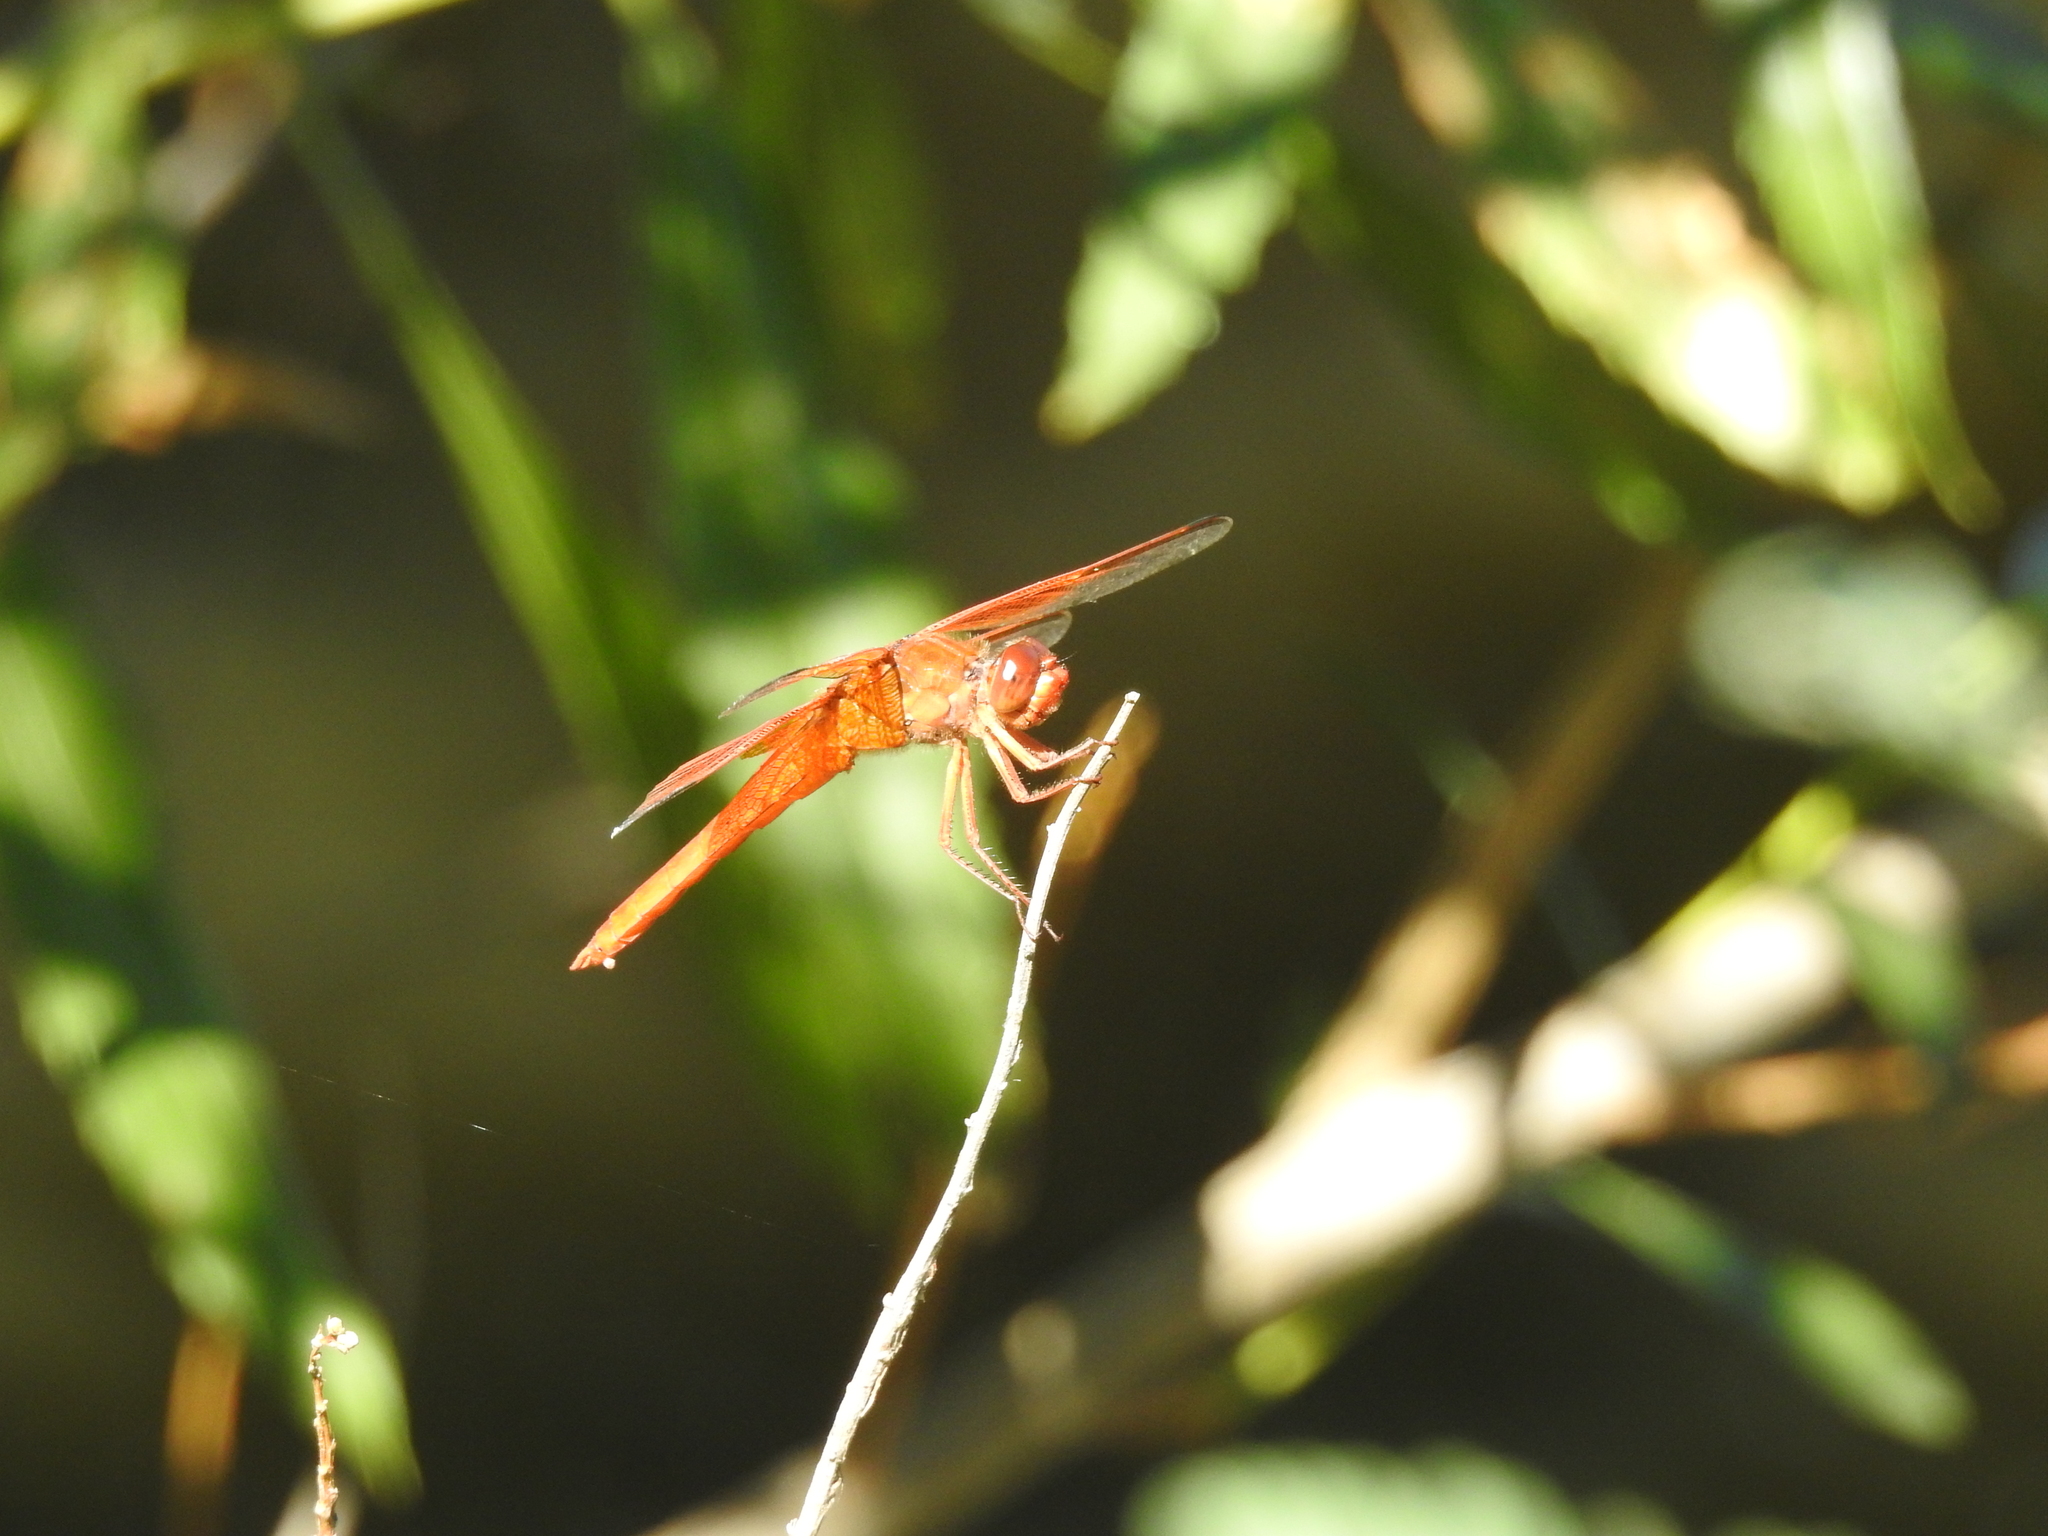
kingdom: Animalia
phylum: Arthropoda
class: Insecta
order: Odonata
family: Libellulidae
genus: Libellula
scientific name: Libellula saturata
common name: Flame skimmer
